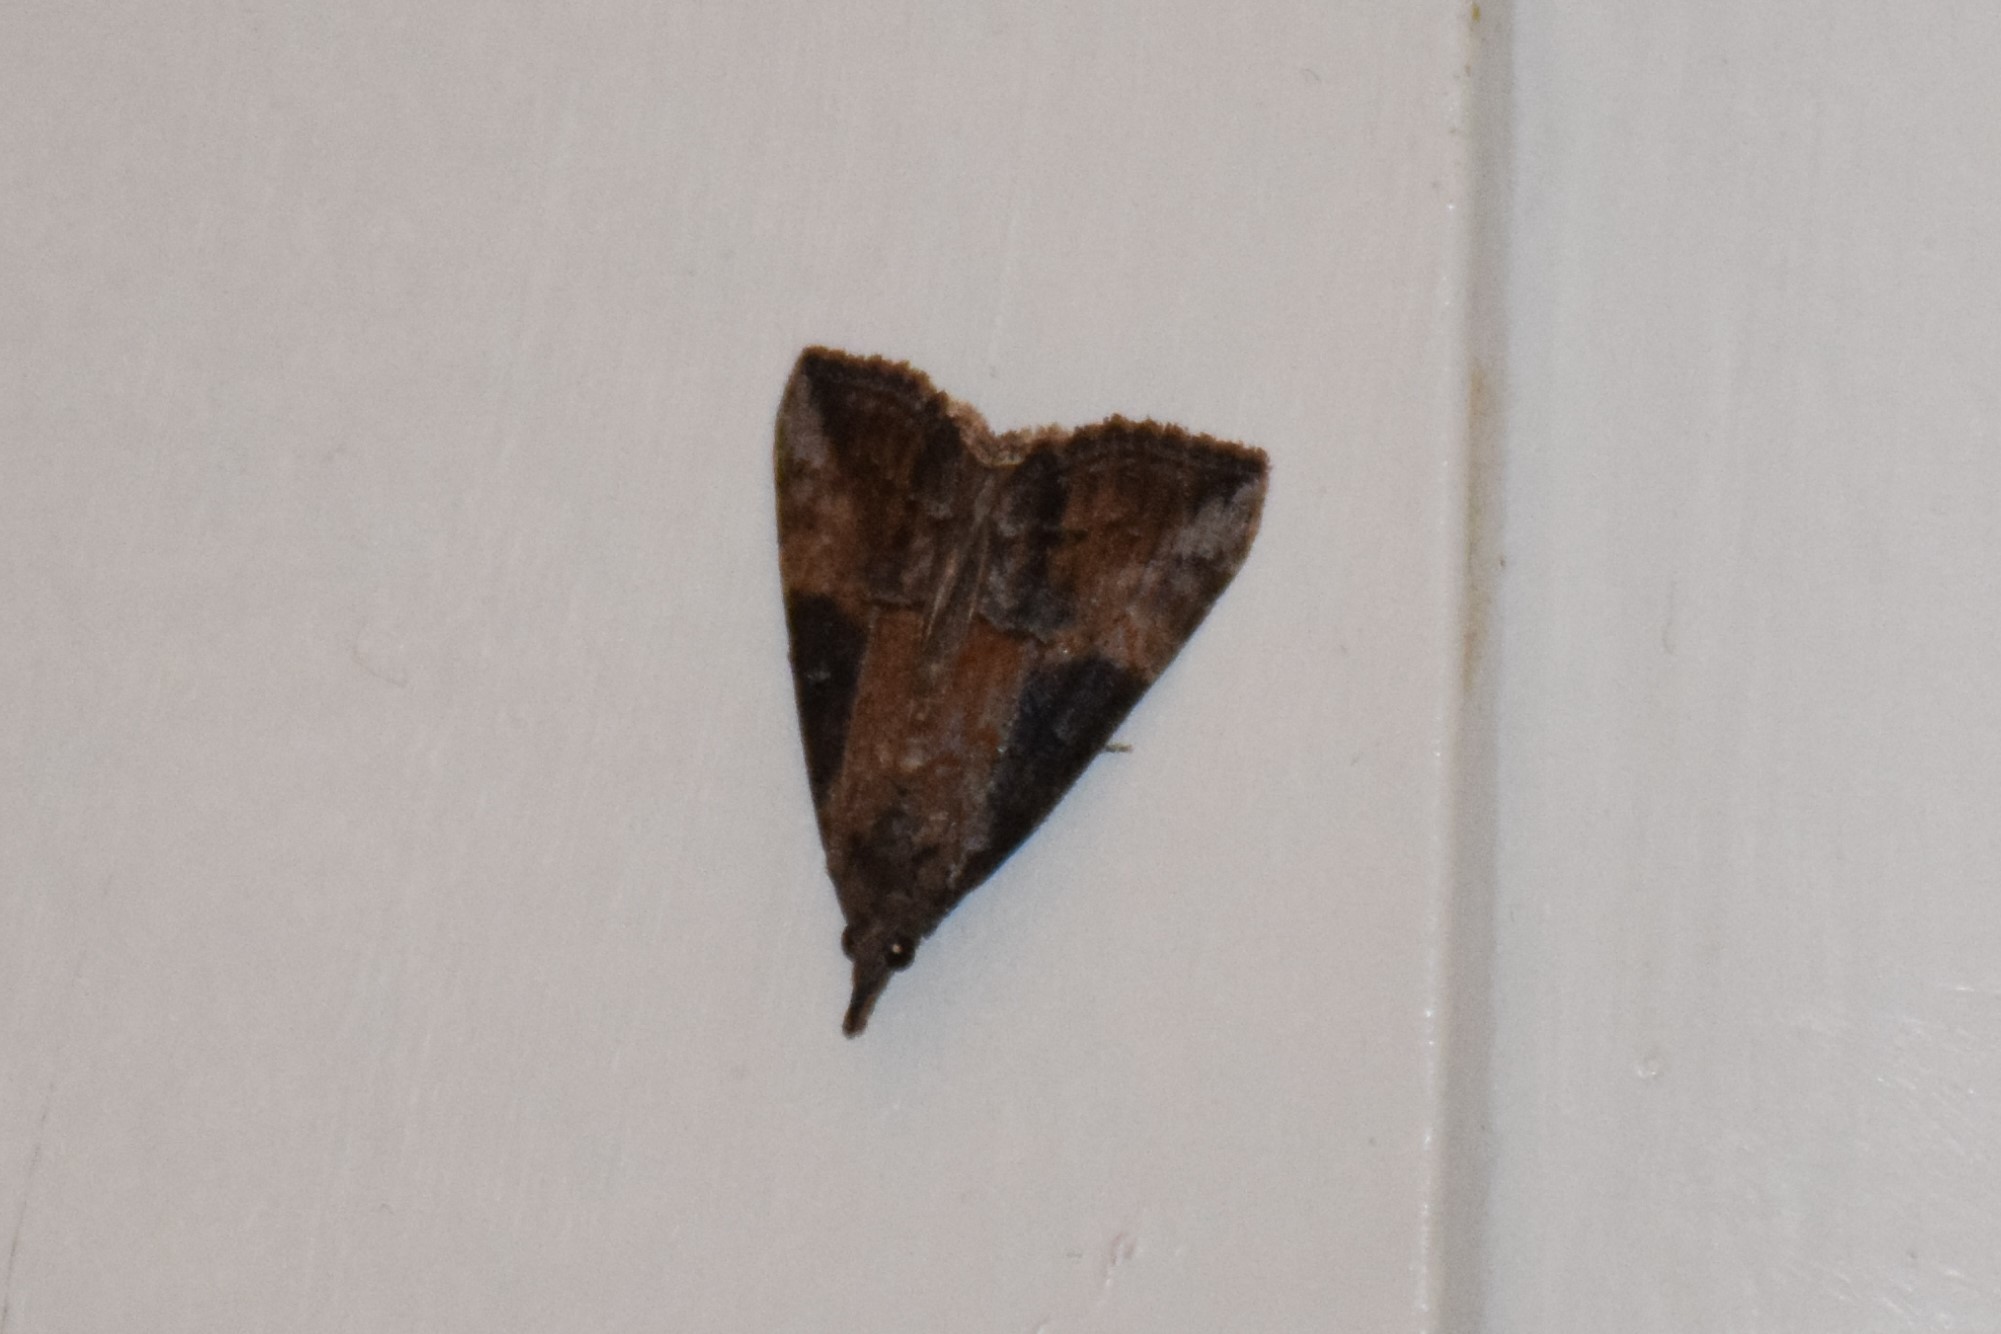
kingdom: Animalia
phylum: Arthropoda
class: Insecta
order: Lepidoptera
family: Erebidae
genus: Hypena
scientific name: Hypena scabra
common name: Green cloverworm
